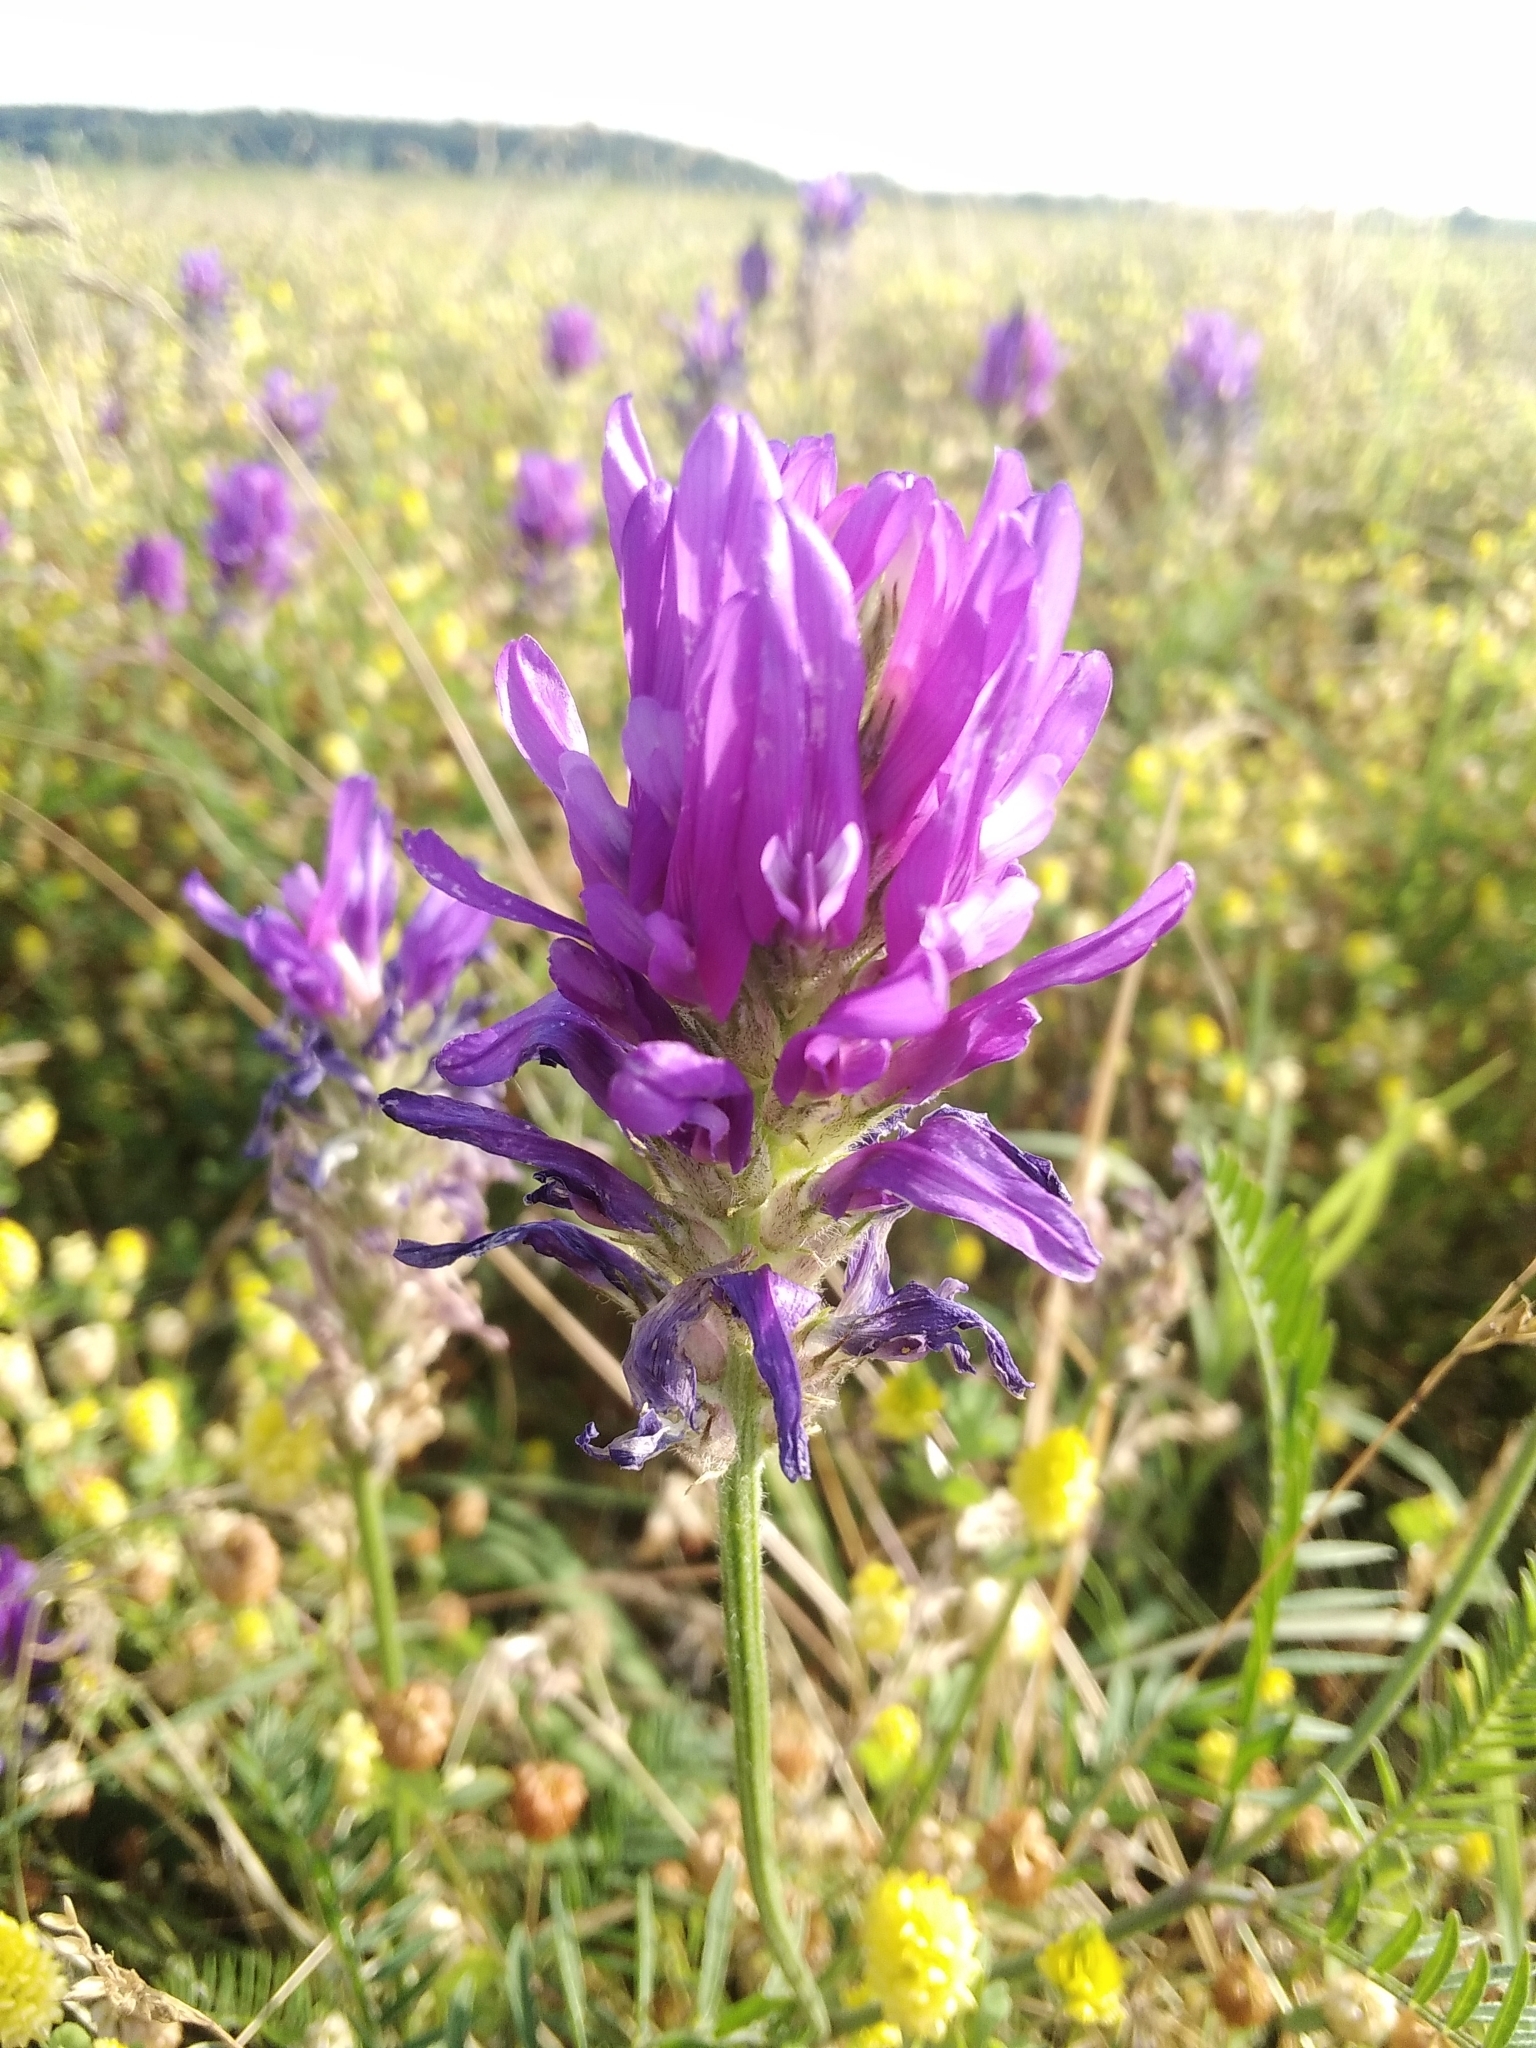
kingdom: Plantae
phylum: Tracheophyta
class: Magnoliopsida
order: Fabales
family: Fabaceae
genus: Astragalus
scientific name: Astragalus onobrychis
